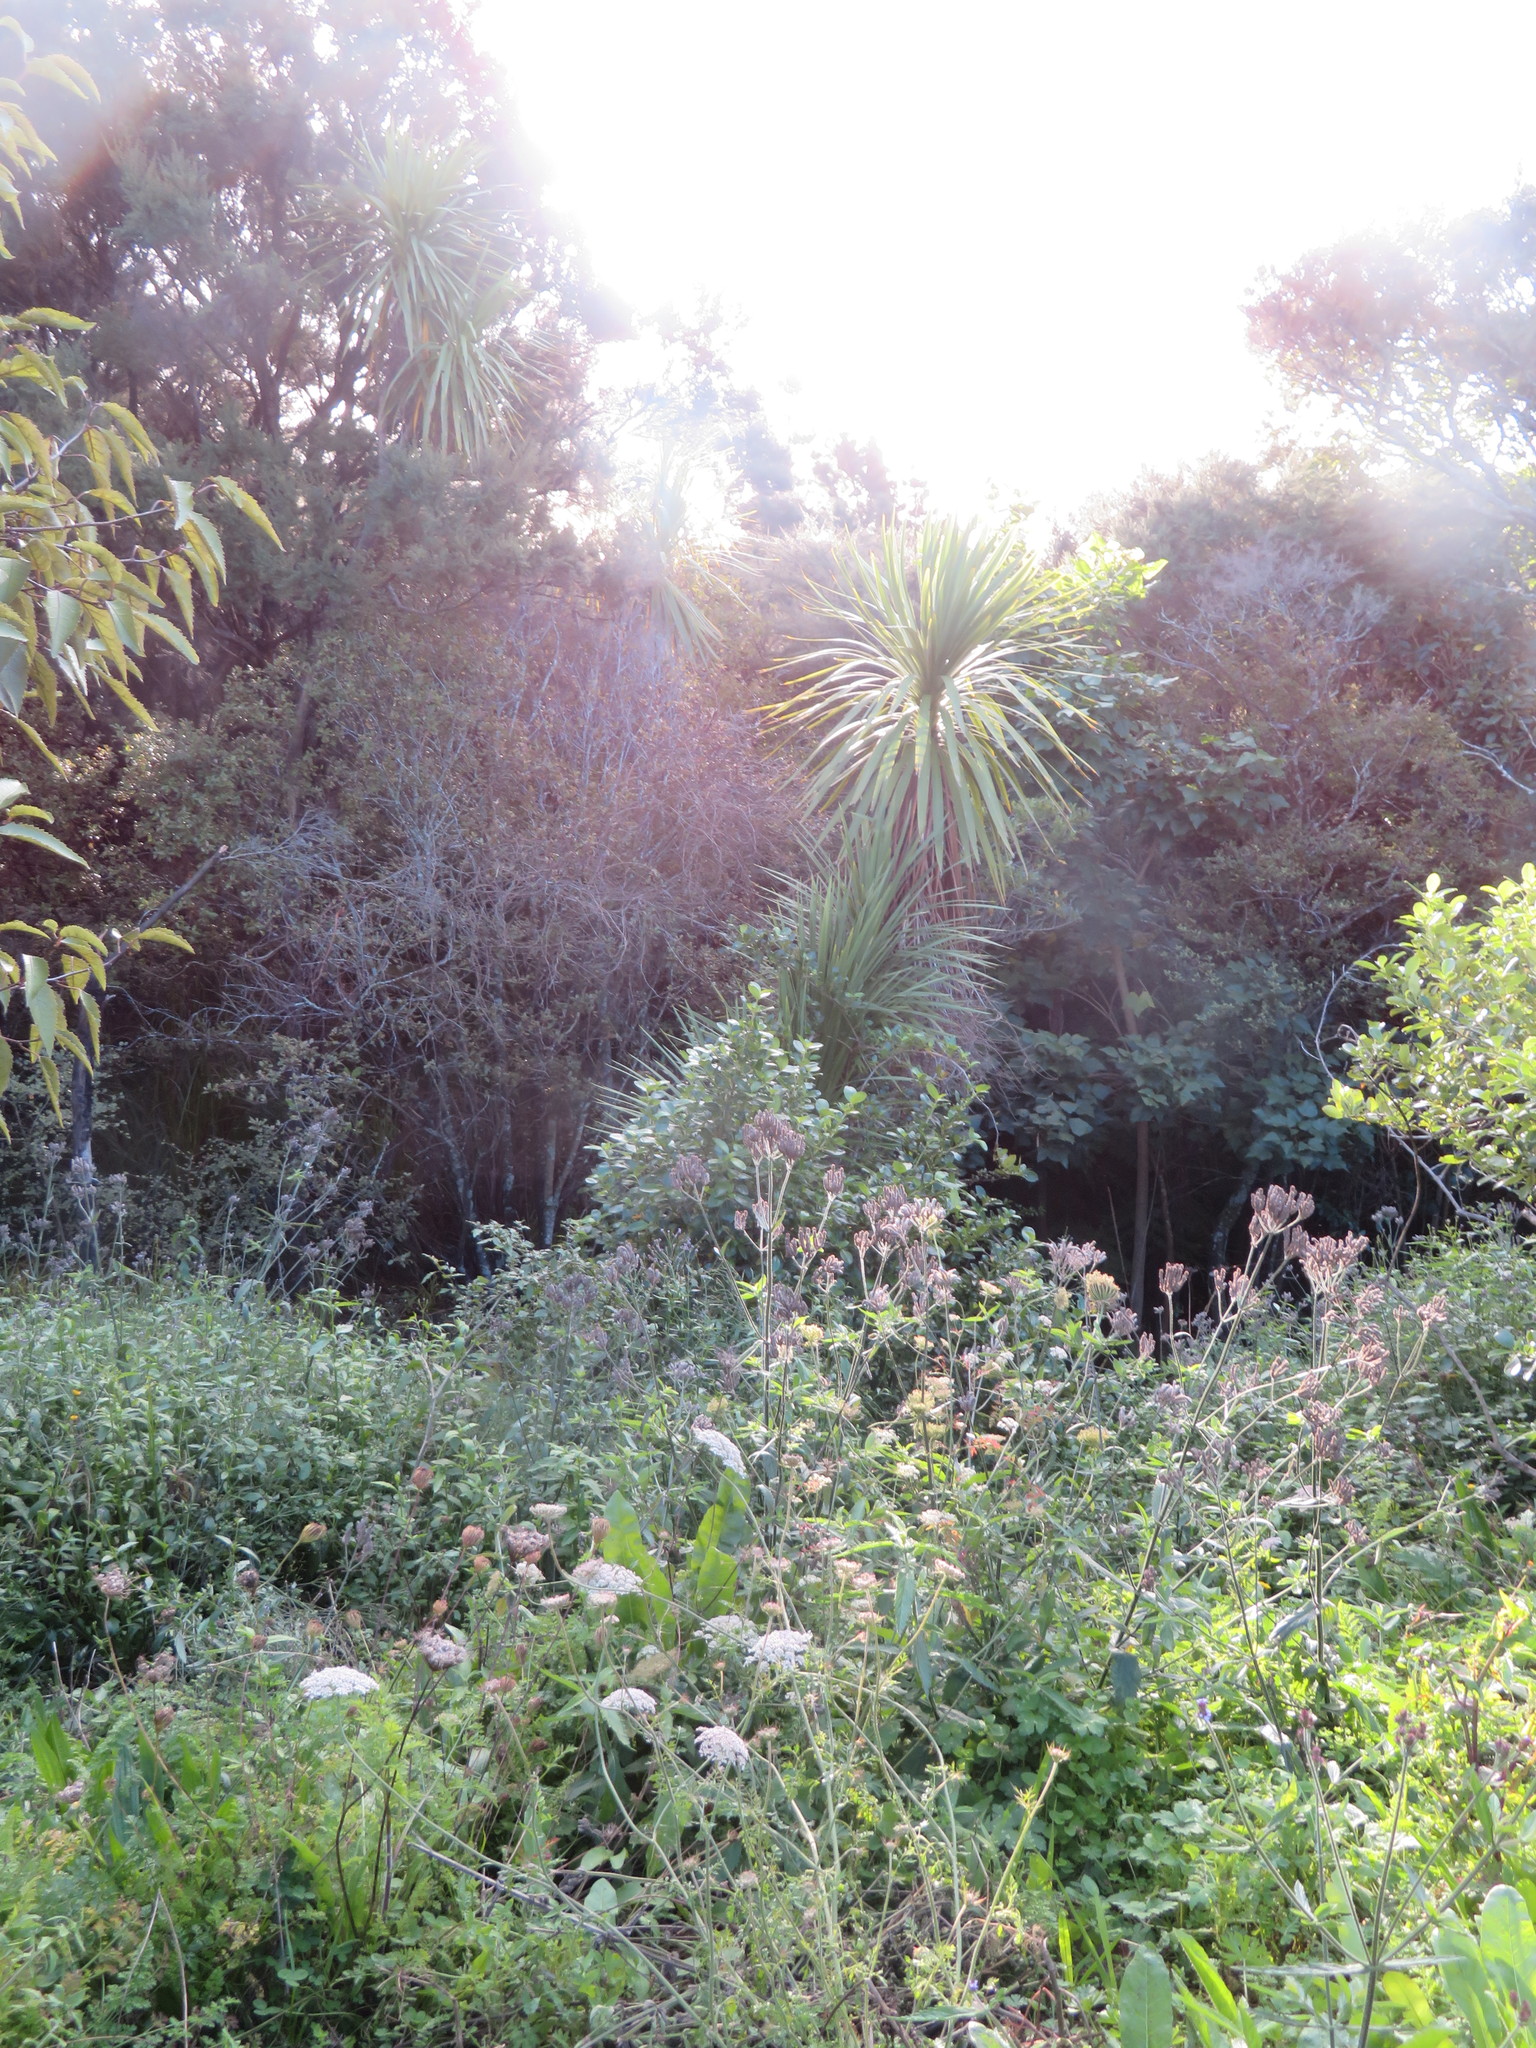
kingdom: Plantae
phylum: Tracheophyta
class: Magnoliopsida
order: Lamiales
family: Verbenaceae
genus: Verbena
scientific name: Verbena incompta
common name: Purpletop vervain
